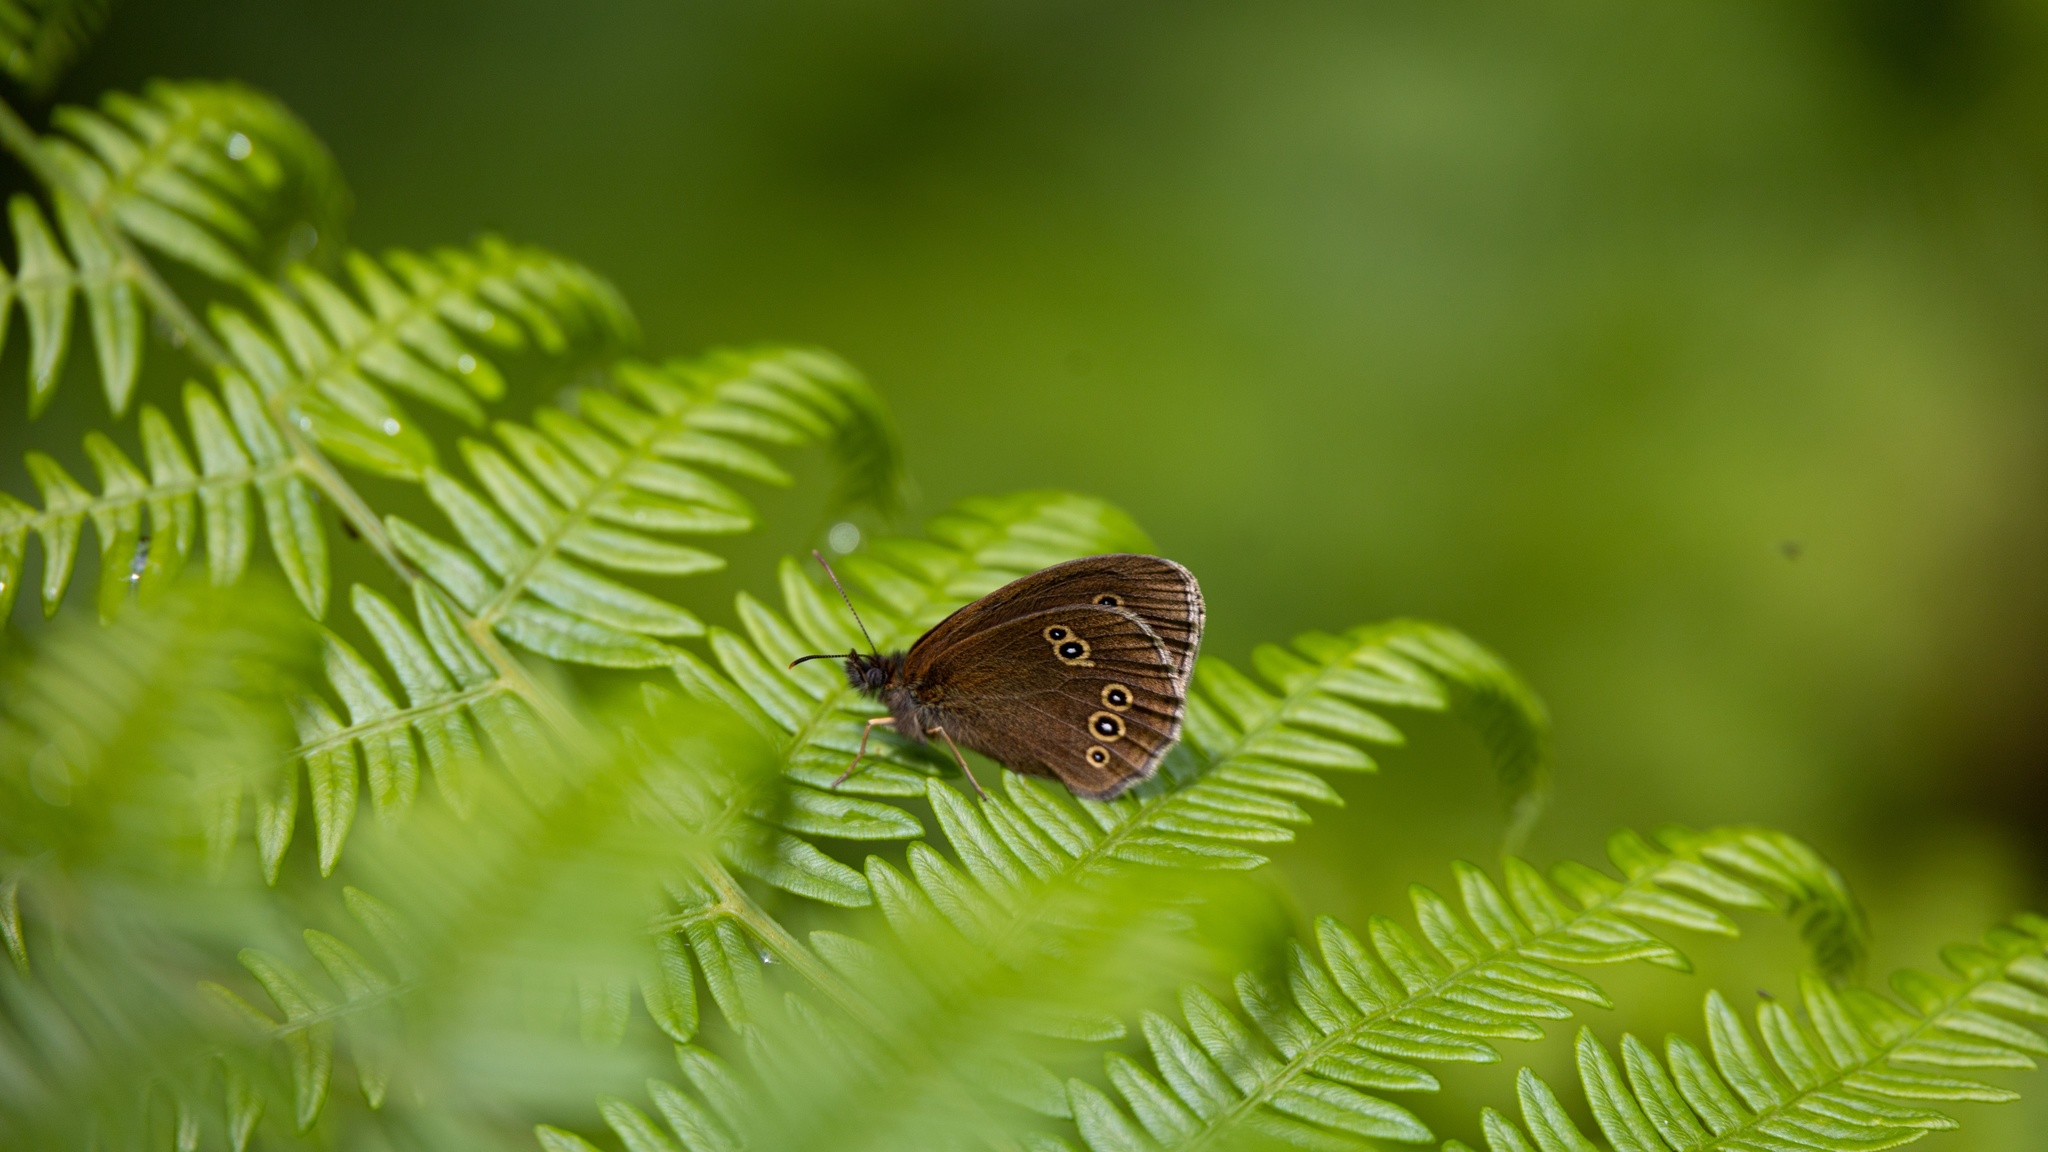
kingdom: Animalia
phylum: Arthropoda
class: Insecta
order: Lepidoptera
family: Nymphalidae
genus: Aphantopus
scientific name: Aphantopus hyperantus
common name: Ringlet
